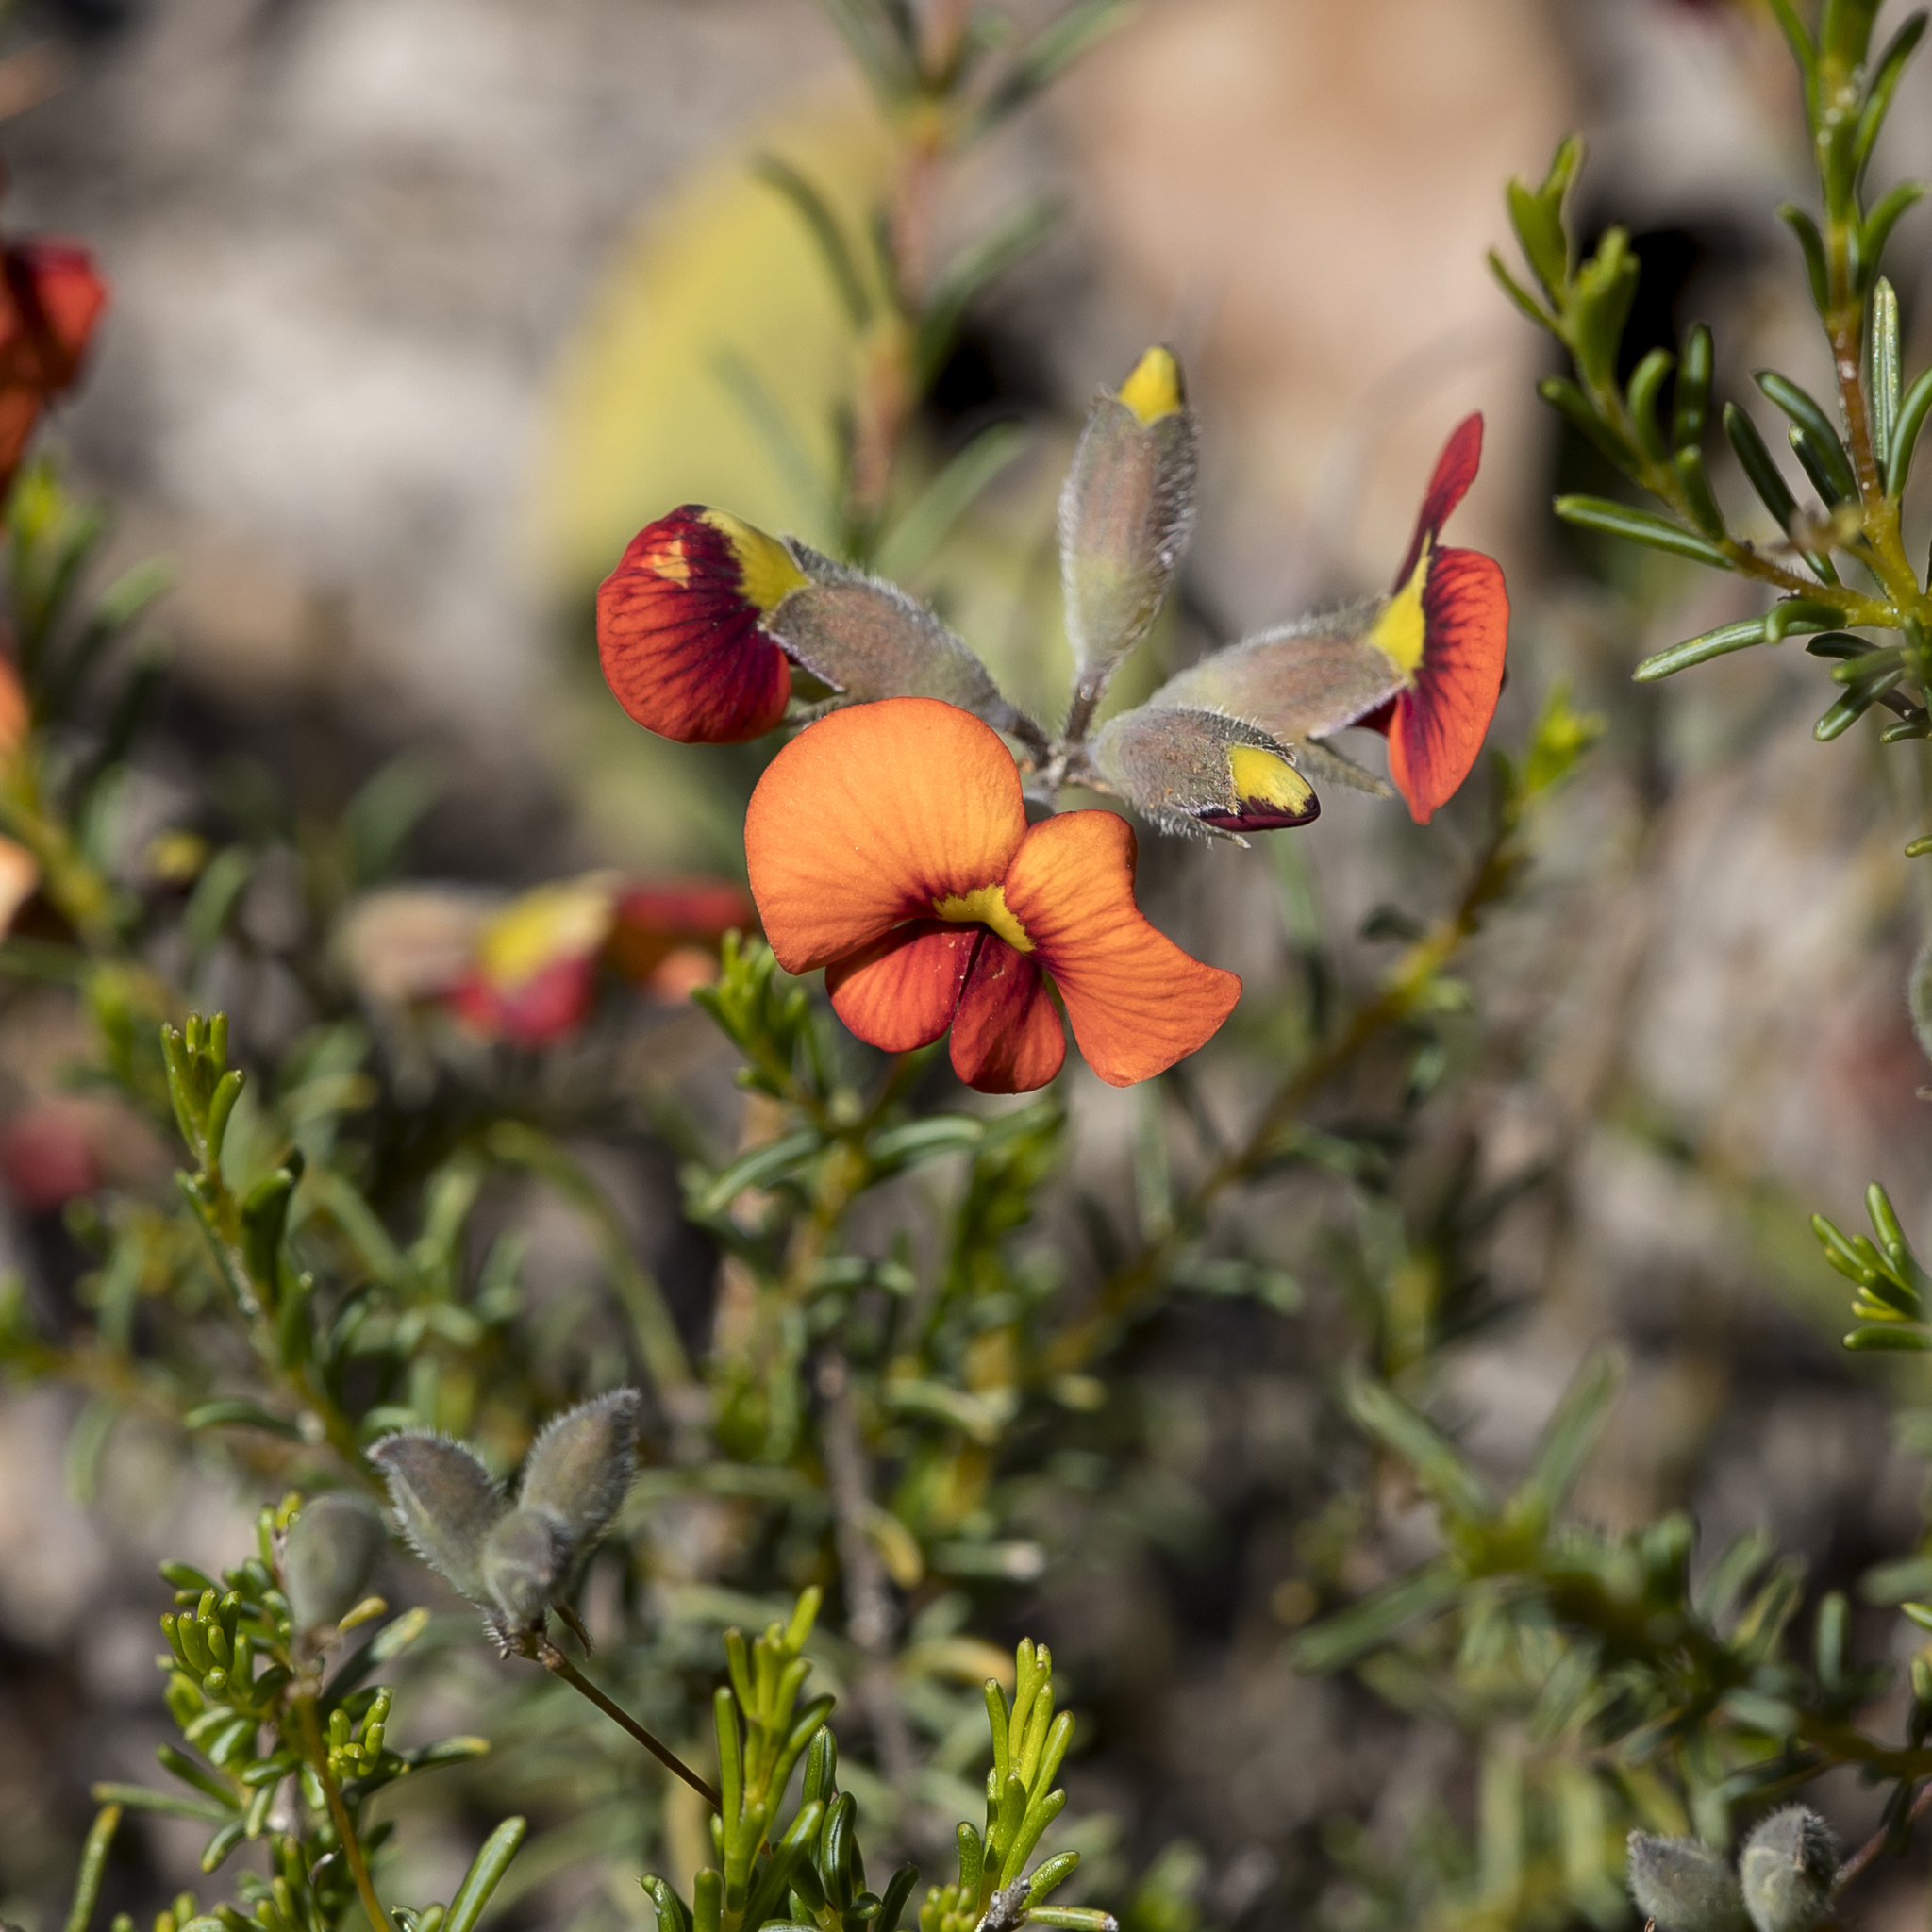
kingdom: Plantae
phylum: Tracheophyta
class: Magnoliopsida
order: Fabales
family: Fabaceae
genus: Dillwynia
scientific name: Dillwynia hispida
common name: Red parrot-pea
